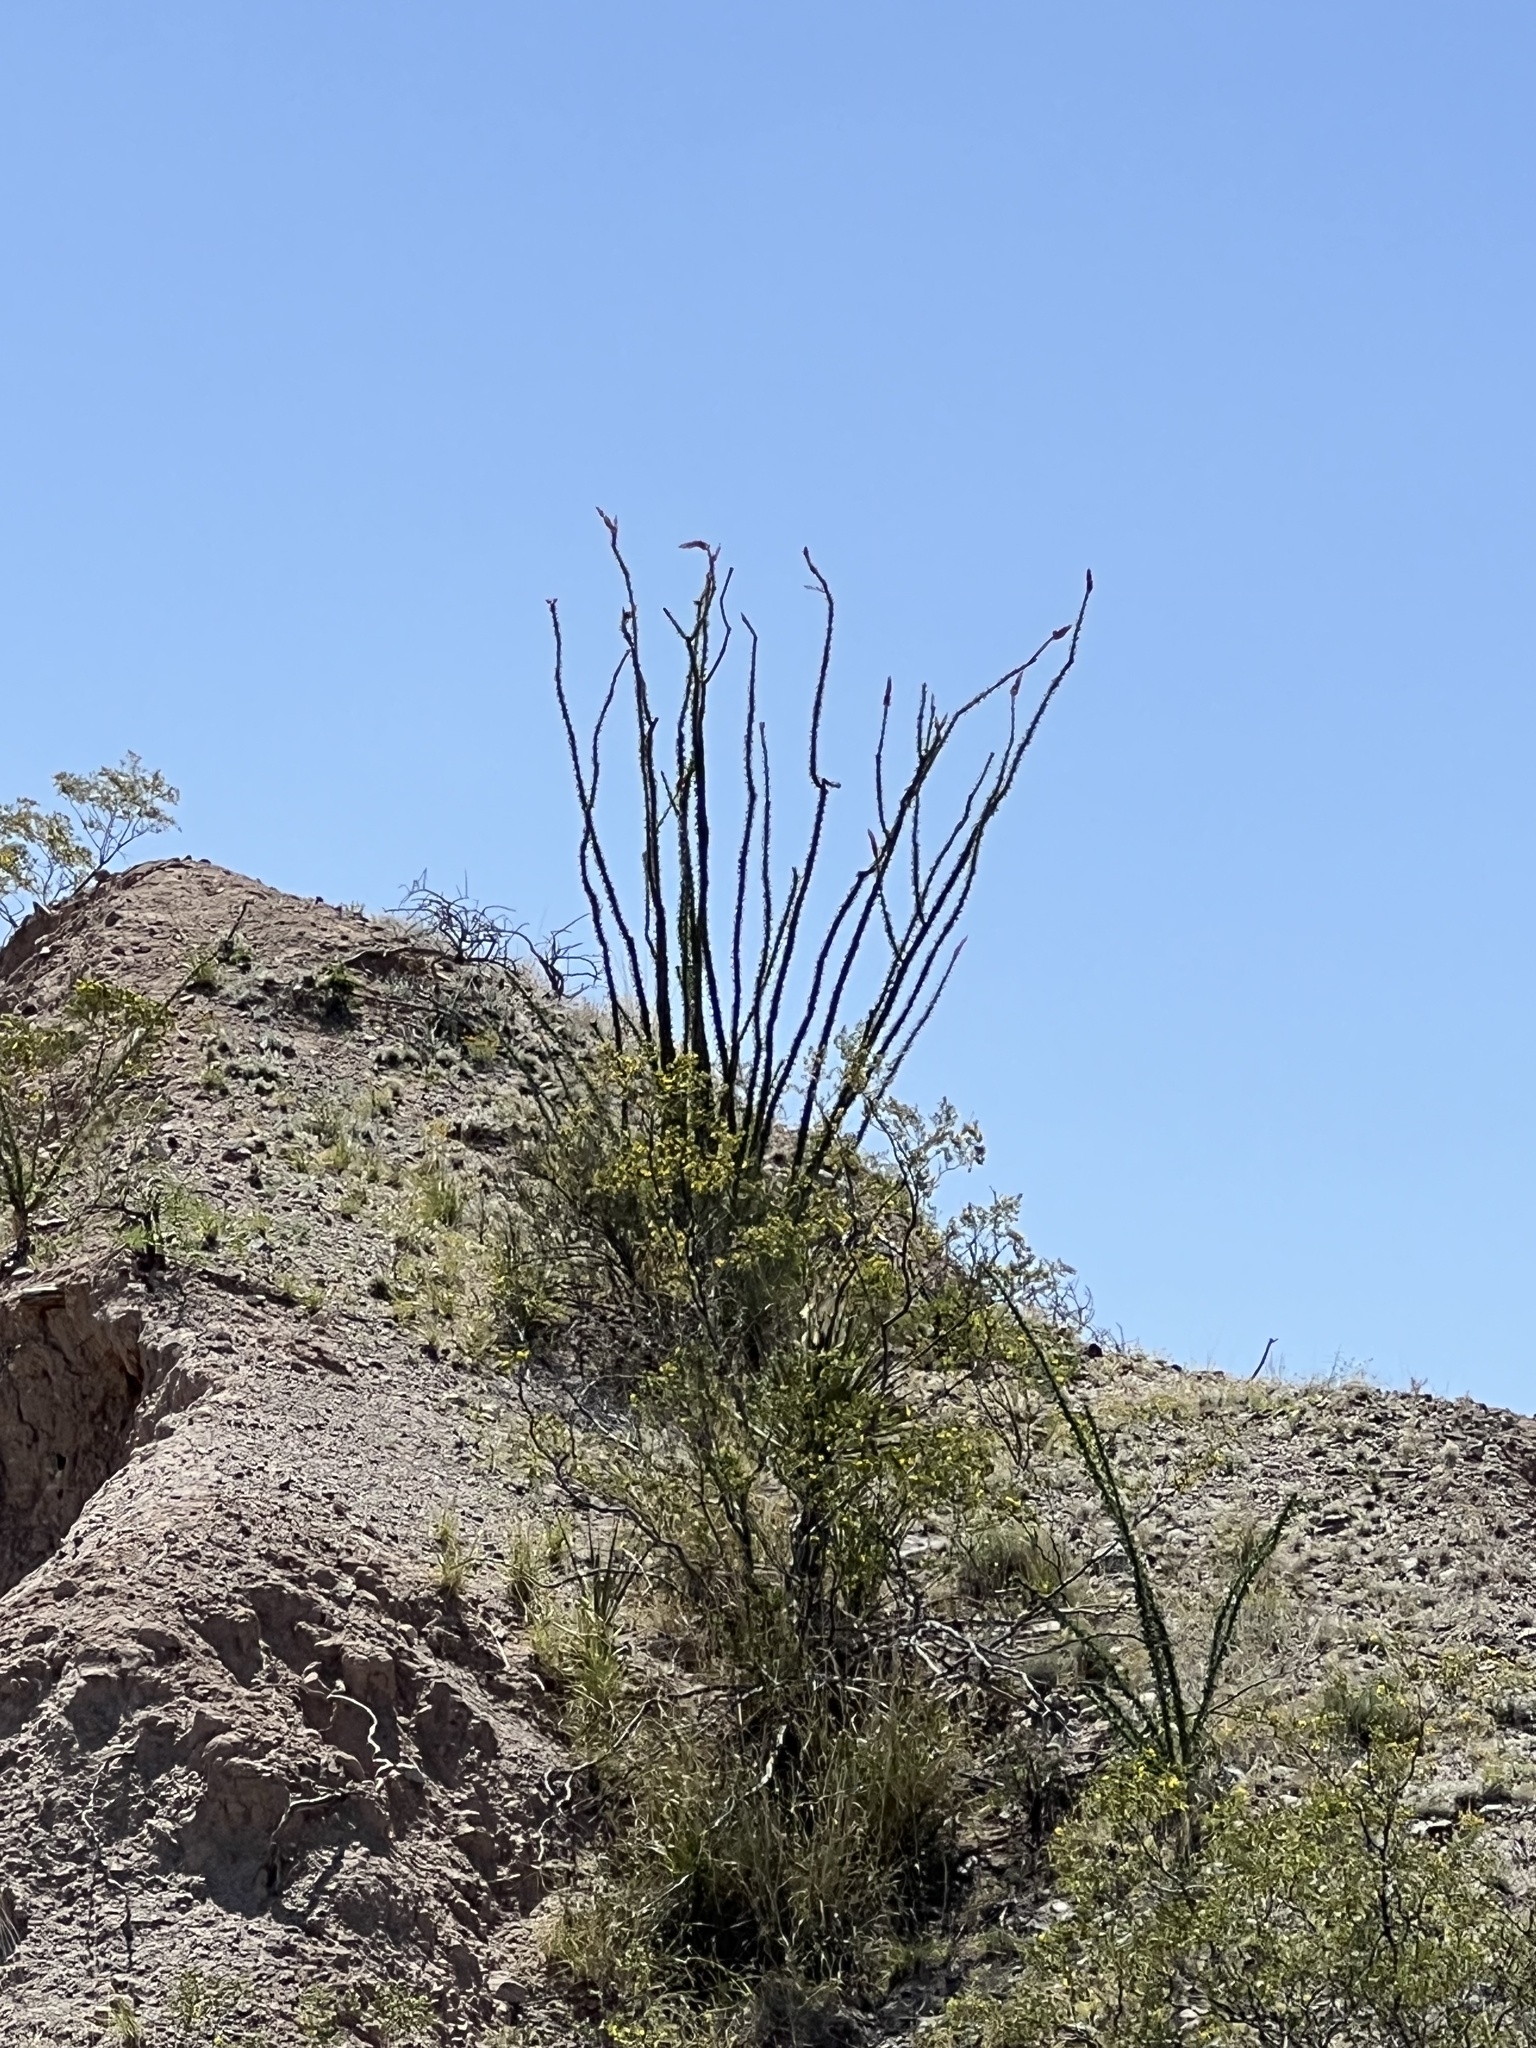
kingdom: Plantae
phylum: Tracheophyta
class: Magnoliopsida
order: Ericales
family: Fouquieriaceae
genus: Fouquieria
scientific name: Fouquieria splendens
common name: Vine-cactus
